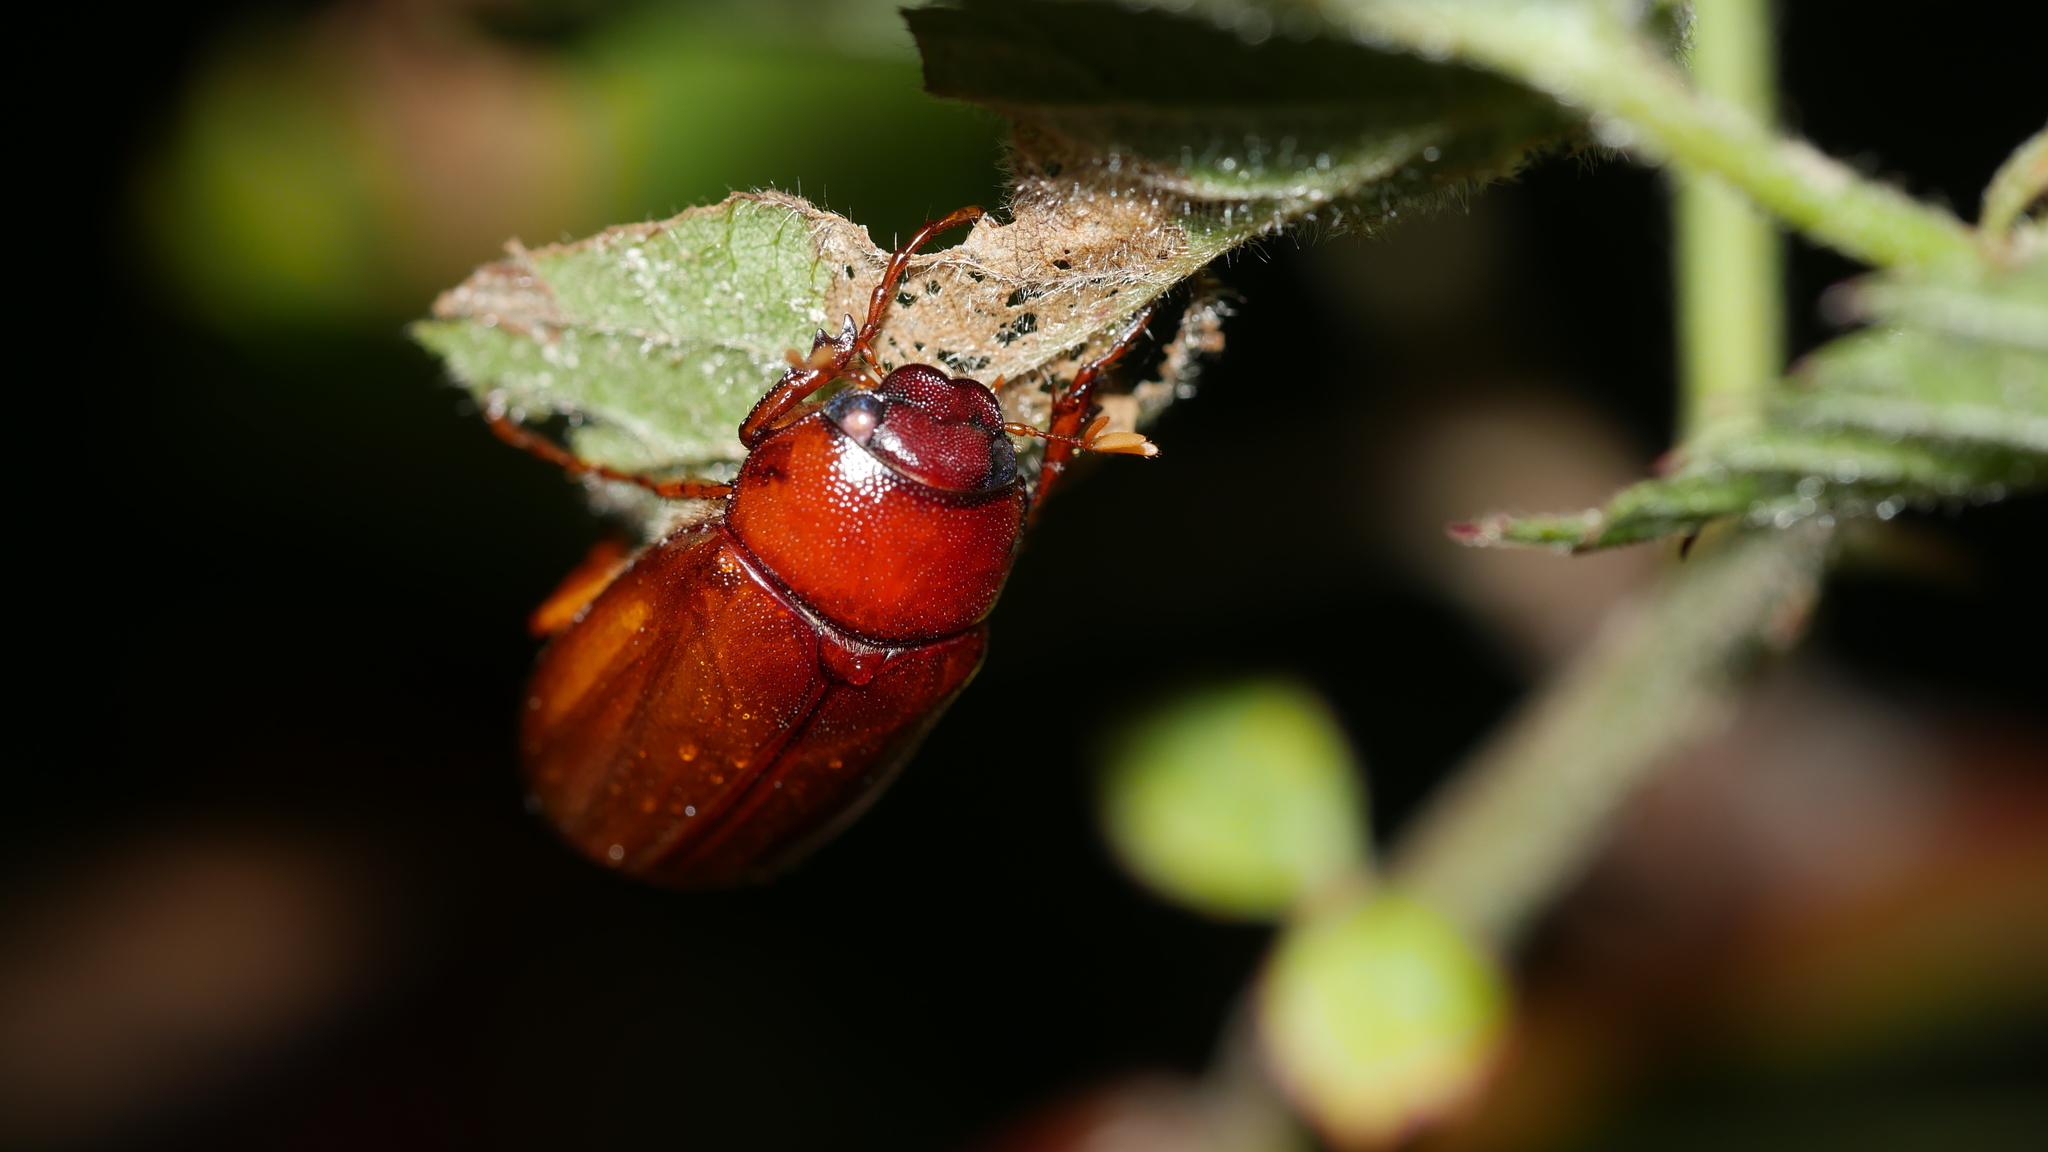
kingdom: Animalia
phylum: Arthropoda
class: Insecta
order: Coleoptera
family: Scarabaeidae
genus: Phyllophaga
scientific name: Phyllophaga
